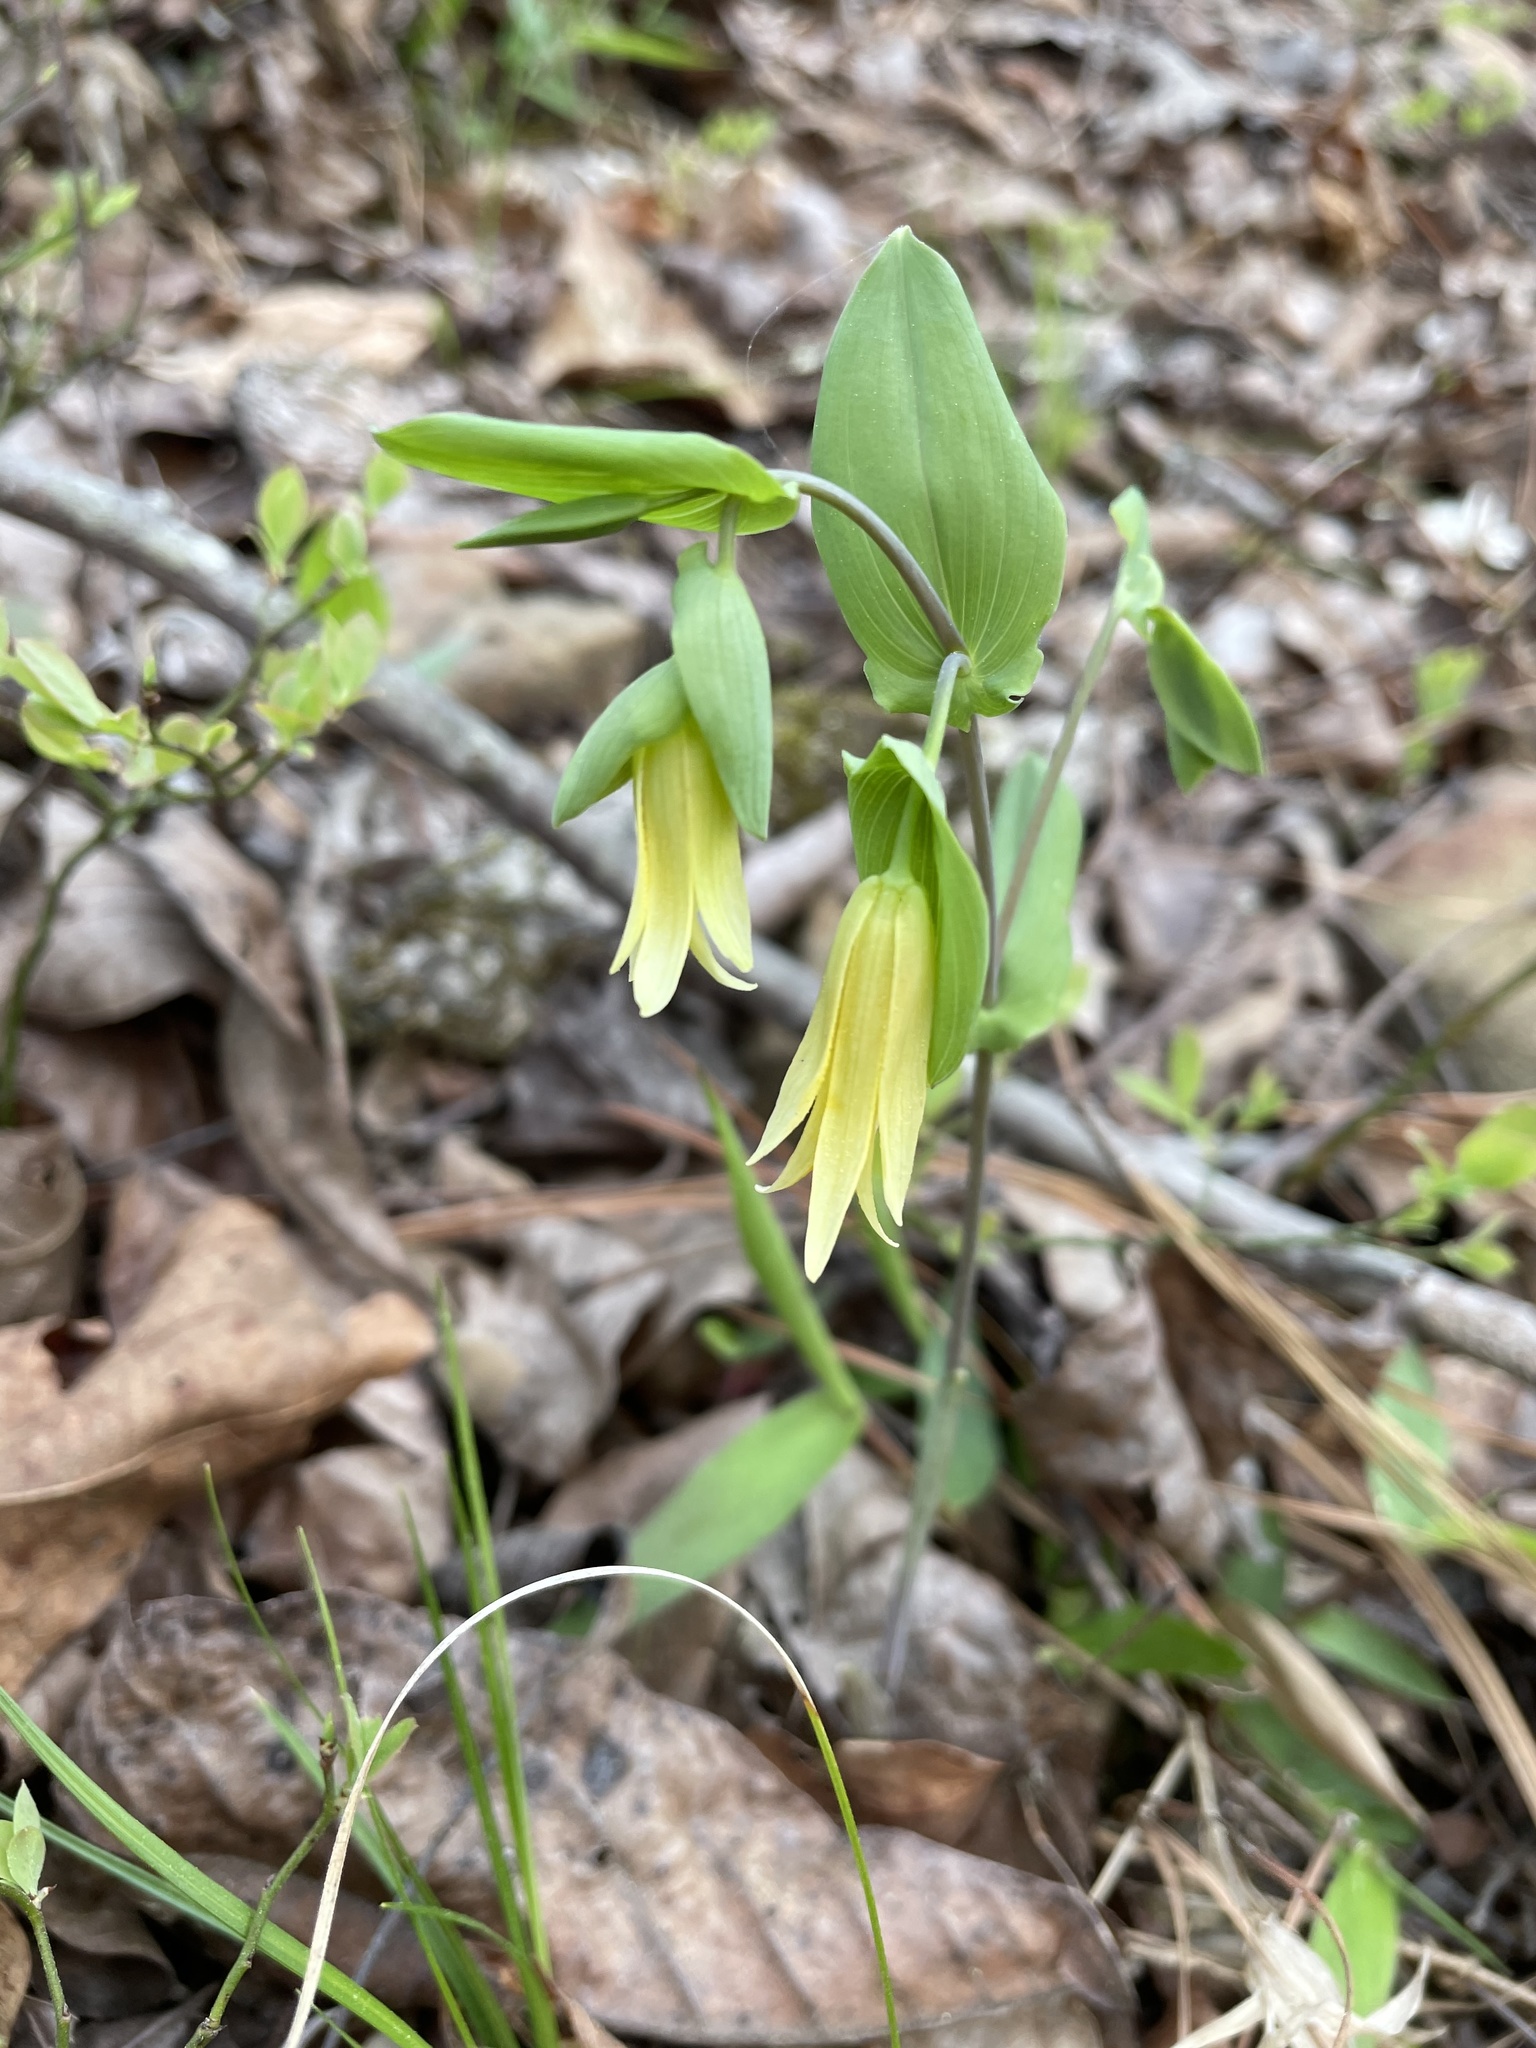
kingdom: Plantae
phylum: Tracheophyta
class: Liliopsida
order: Liliales
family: Colchicaceae
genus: Uvularia
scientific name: Uvularia perfoliata
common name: Perfoliate bellwort
